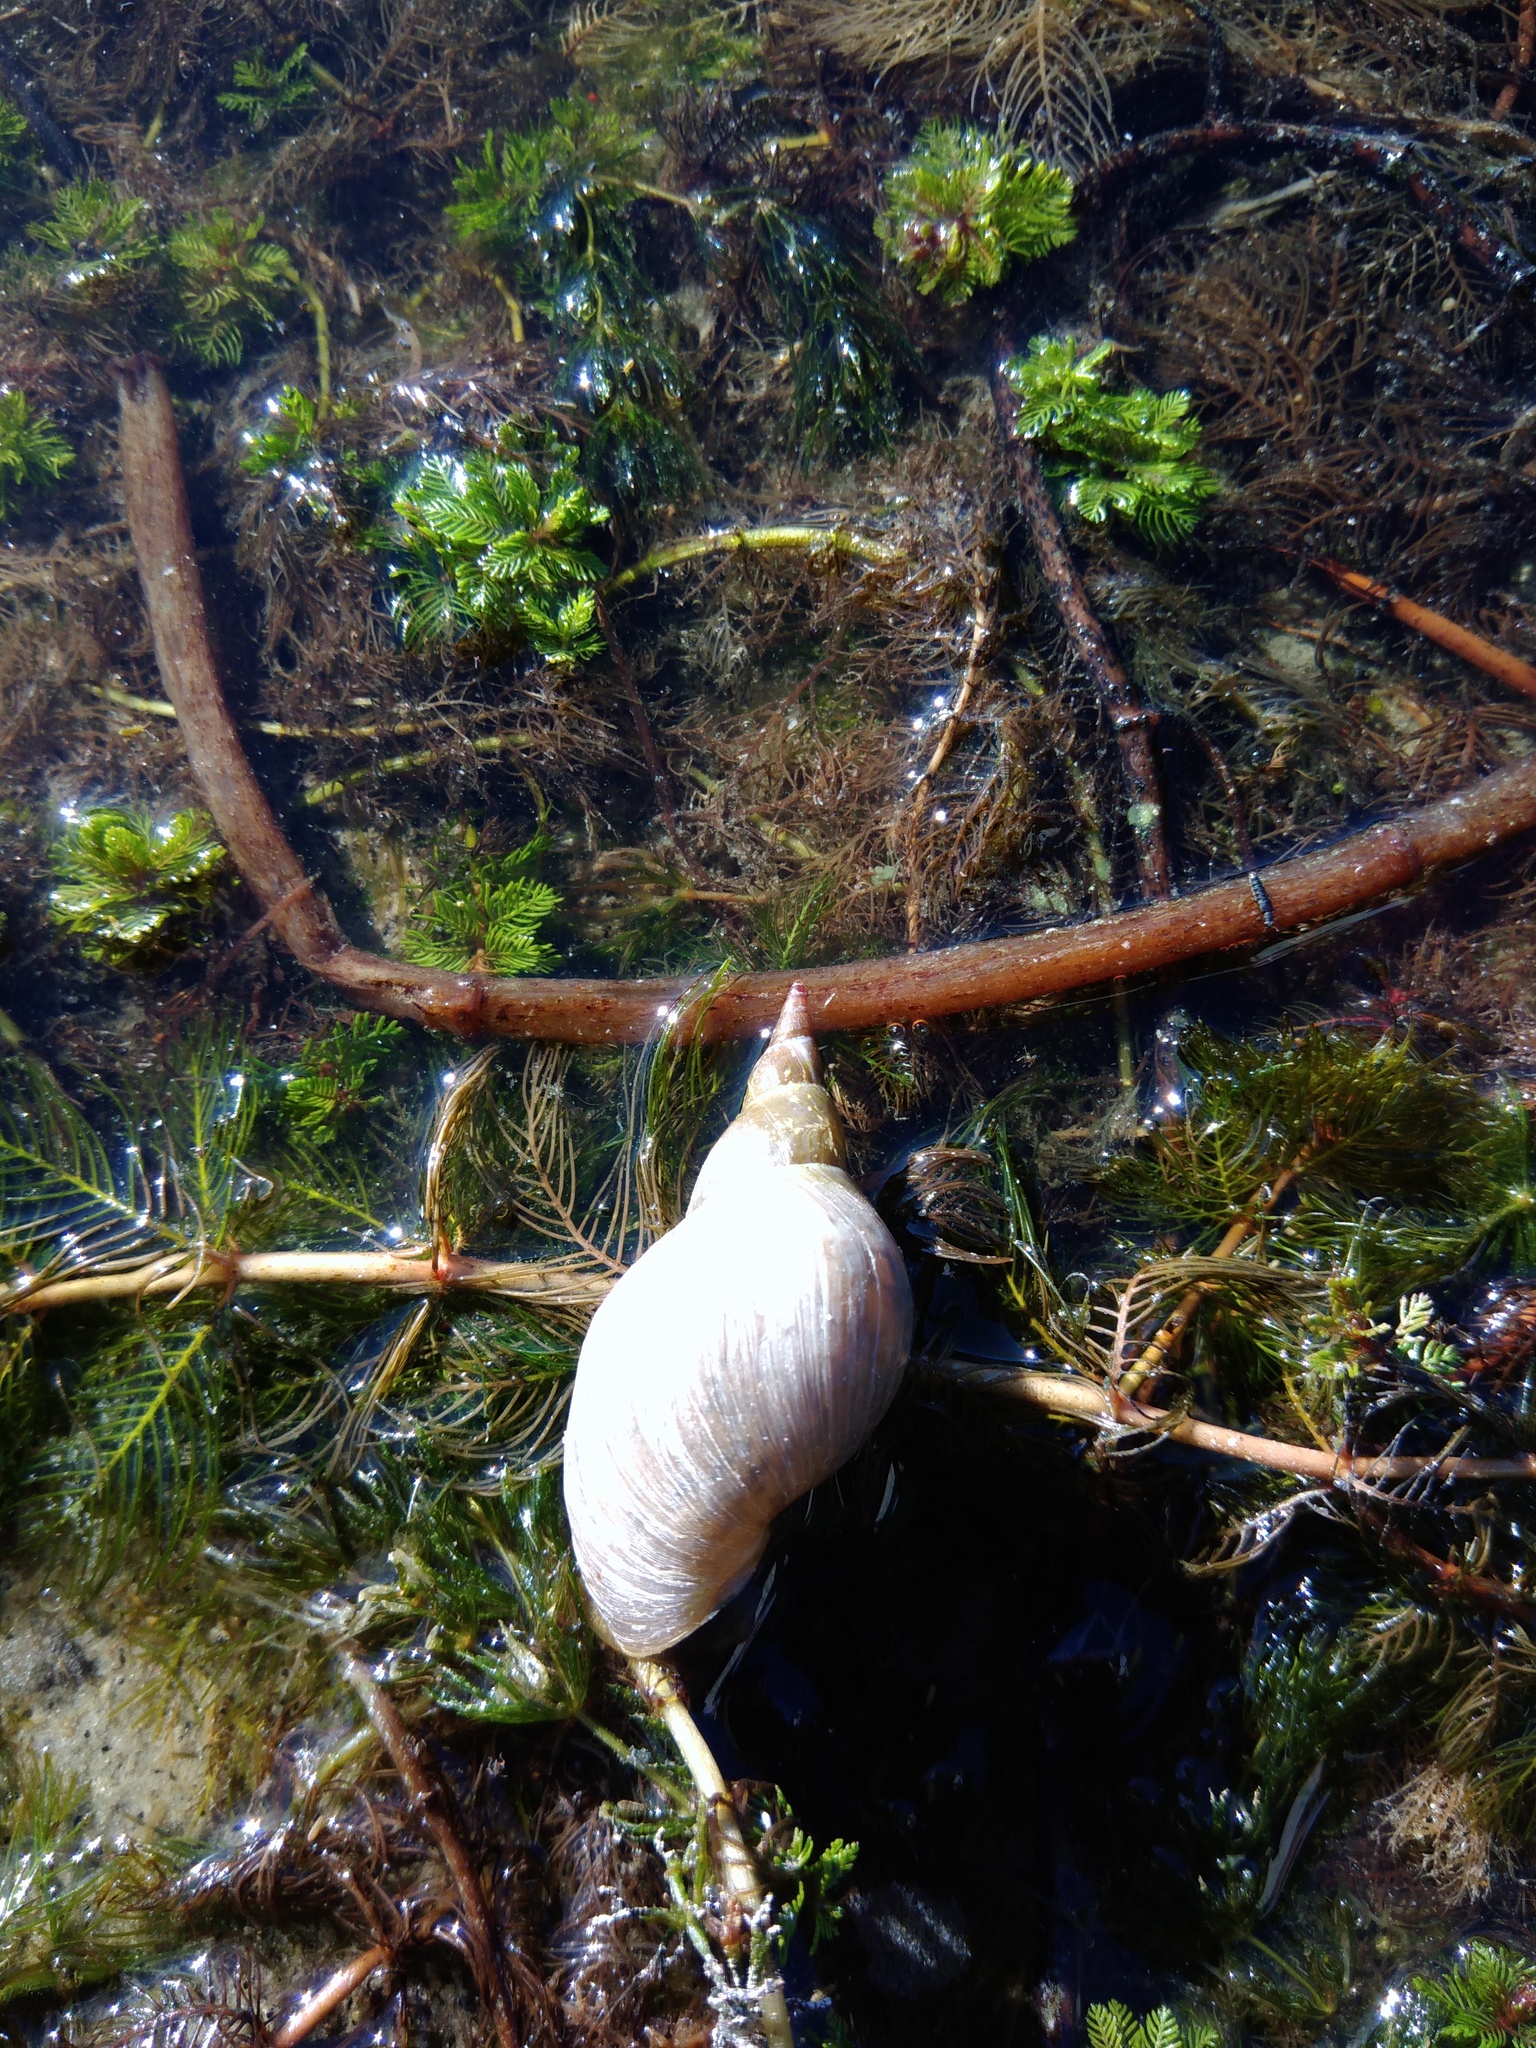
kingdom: Animalia
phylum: Mollusca
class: Gastropoda
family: Lymnaeidae
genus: Lymnaea
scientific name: Lymnaea stagnalis
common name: Great pond snail
